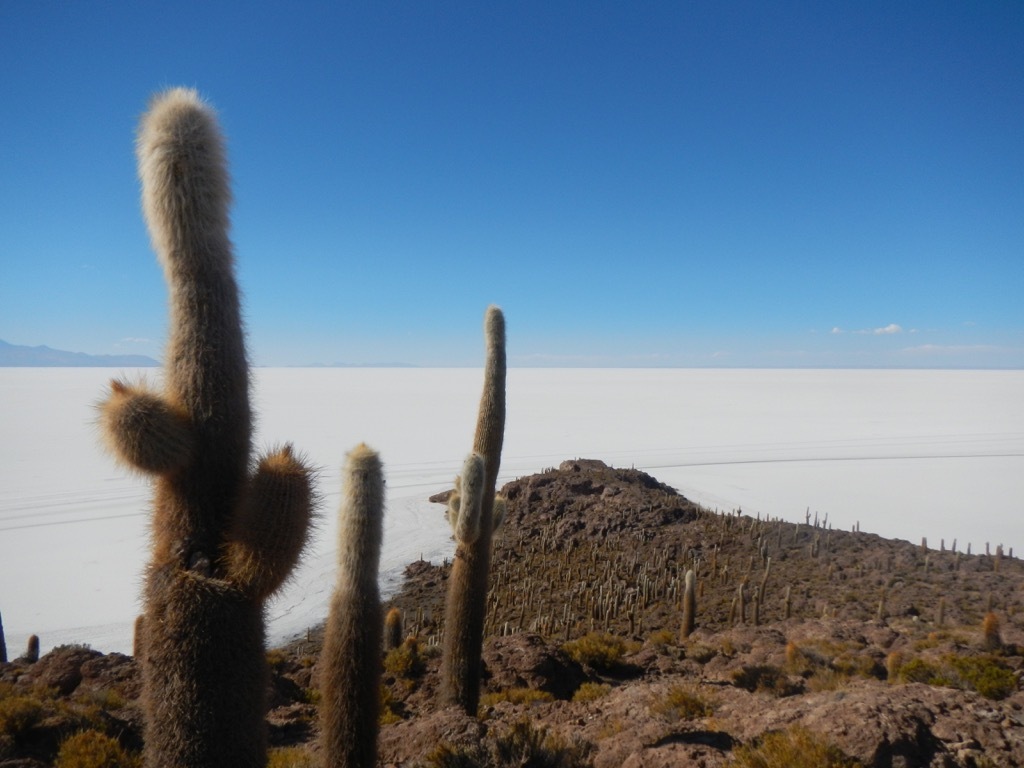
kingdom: Plantae
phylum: Tracheophyta
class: Magnoliopsida
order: Caryophyllales
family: Cactaceae
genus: Leucostele
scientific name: Leucostele atacamensis
